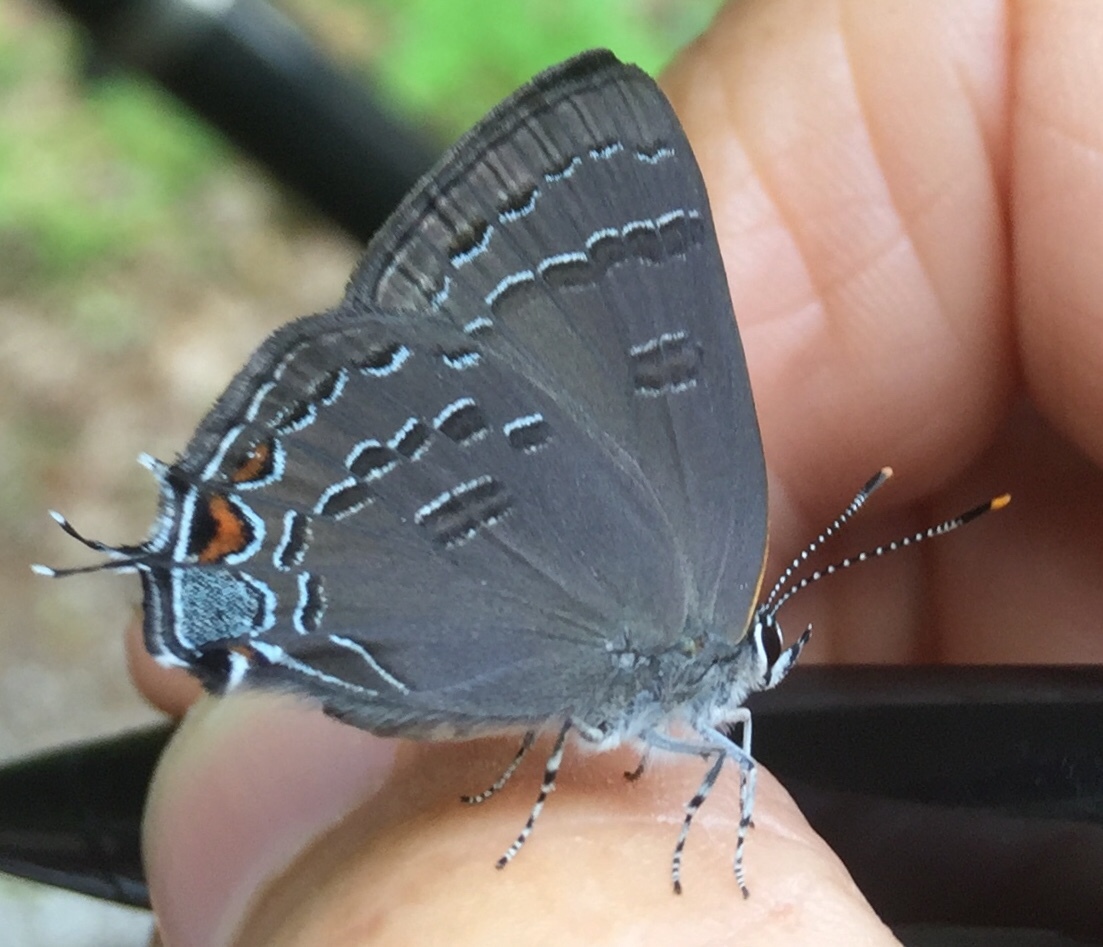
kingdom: Animalia
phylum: Arthropoda
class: Insecta
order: Lepidoptera
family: Lycaenidae
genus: Satyrium
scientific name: Satyrium calanus
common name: Banded hairstreak
